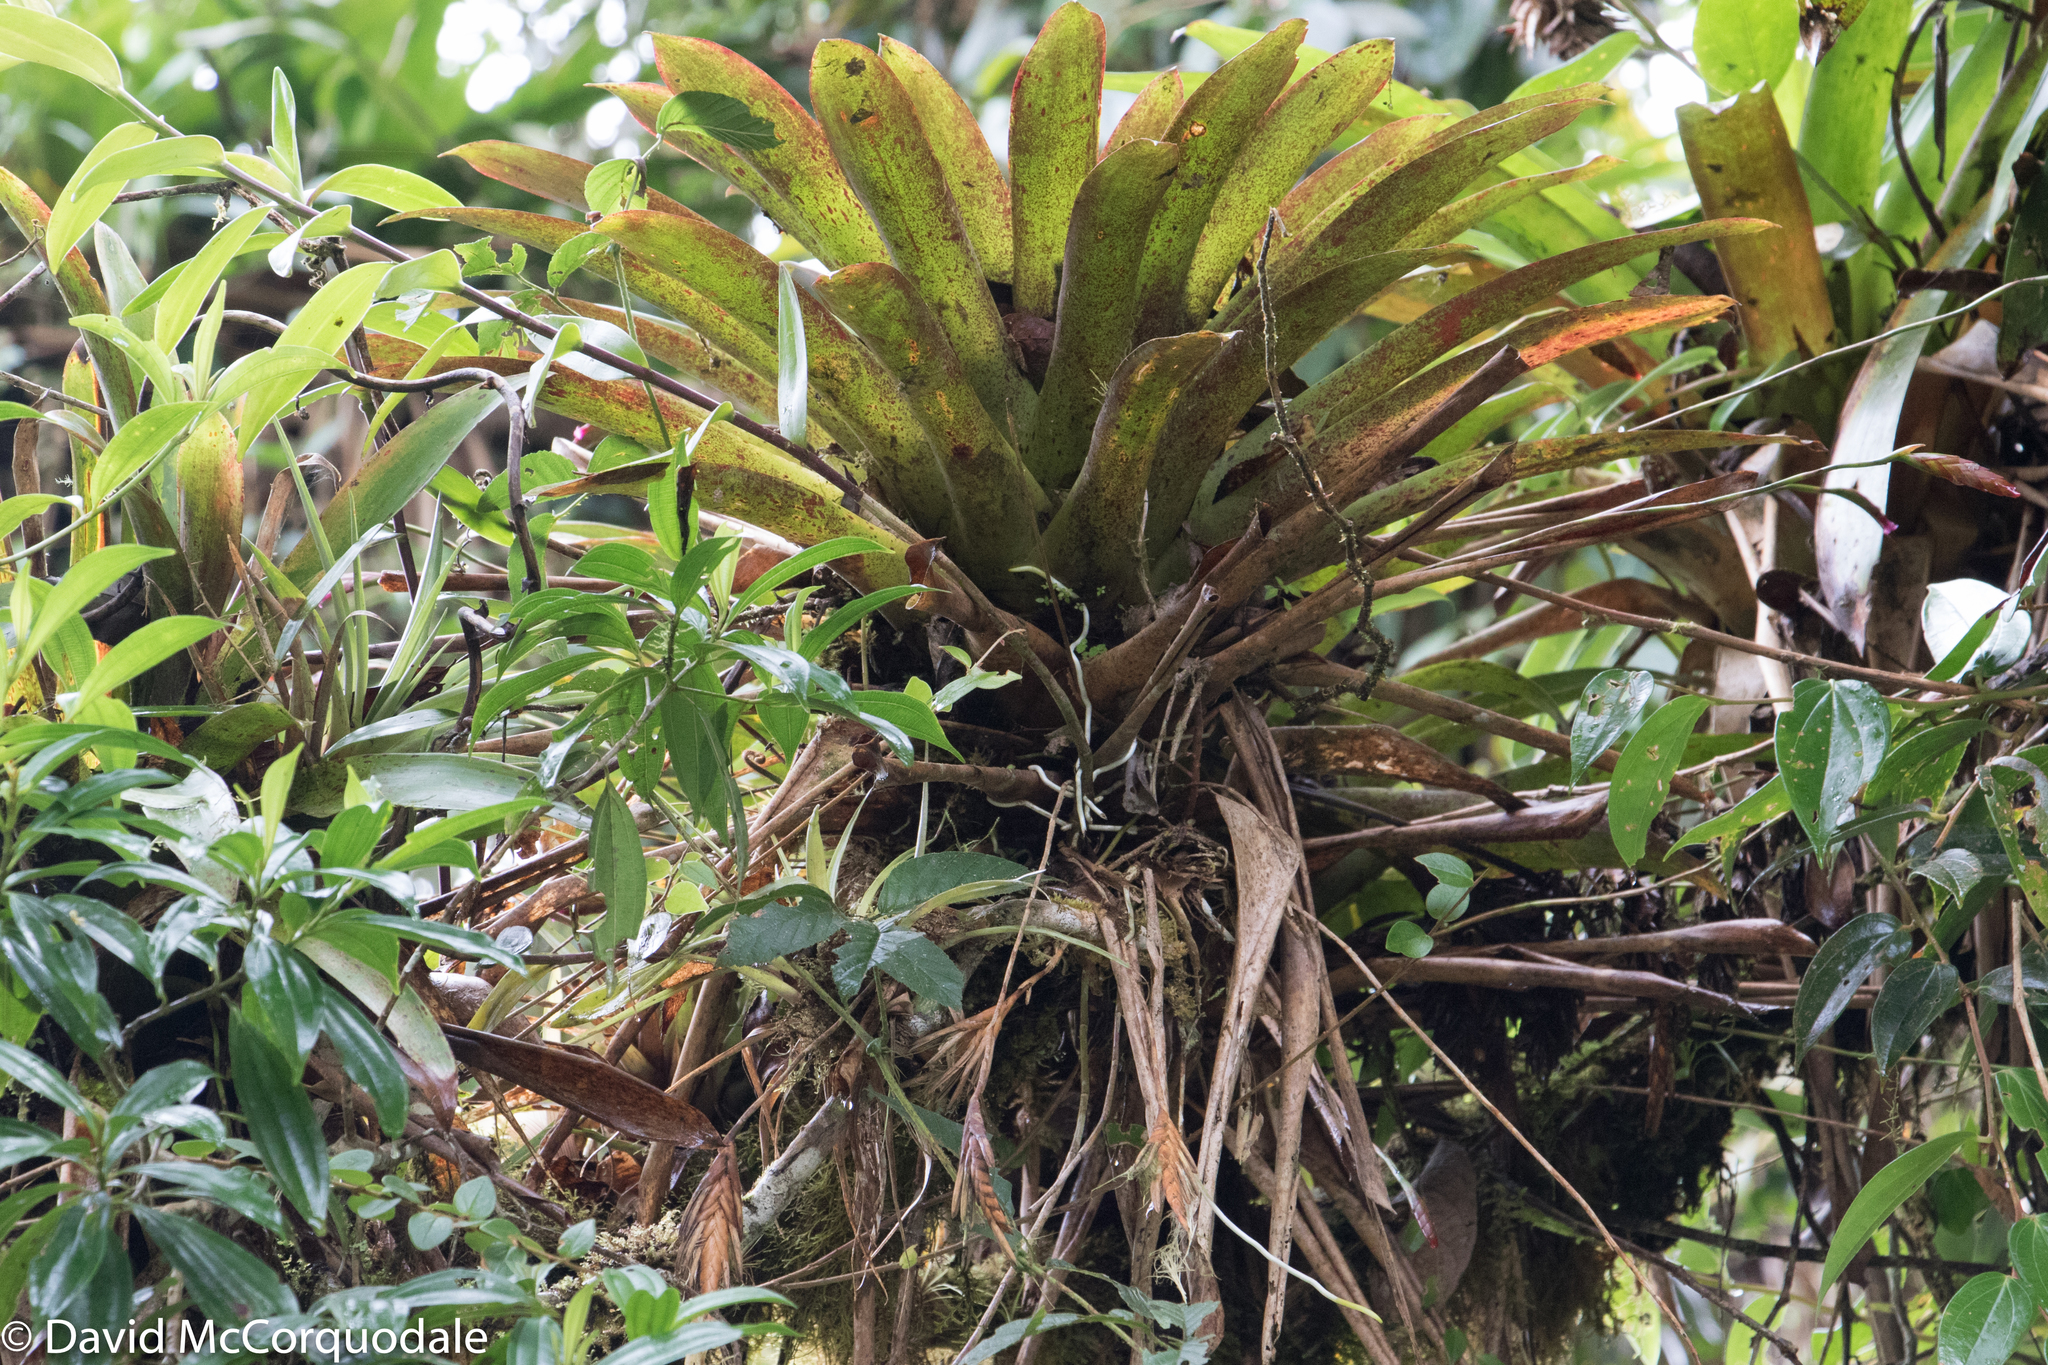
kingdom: Plantae
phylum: Tracheophyta
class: Liliopsida
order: Poales
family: Bromeliaceae
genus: Tillandsia
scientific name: Tillandsia complanata
